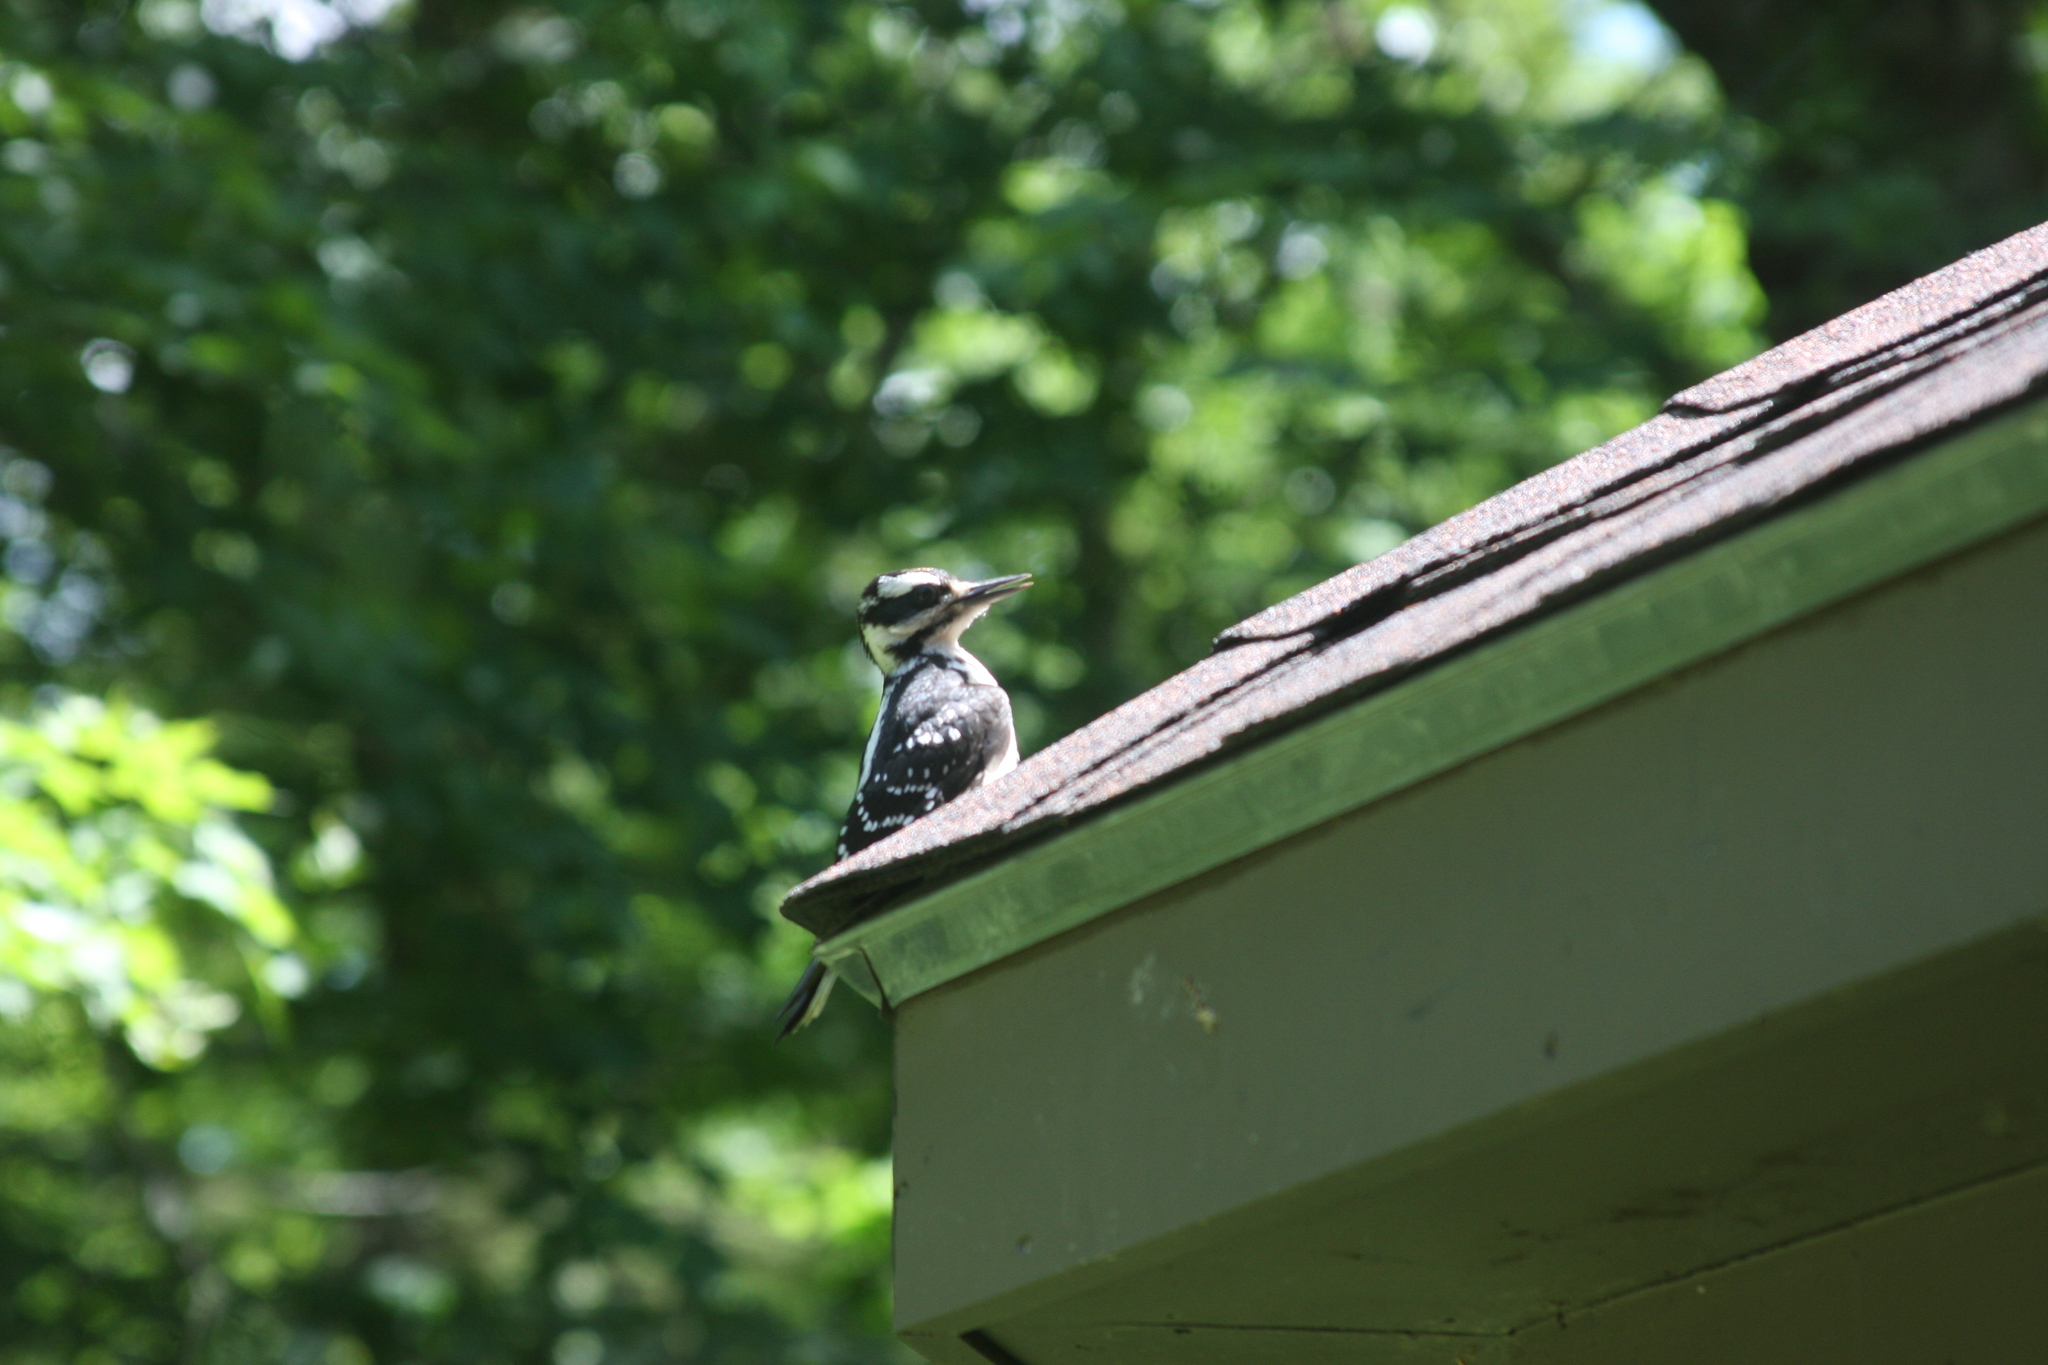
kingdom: Animalia
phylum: Chordata
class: Aves
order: Piciformes
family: Picidae
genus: Leuconotopicus
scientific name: Leuconotopicus villosus
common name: Hairy woodpecker
